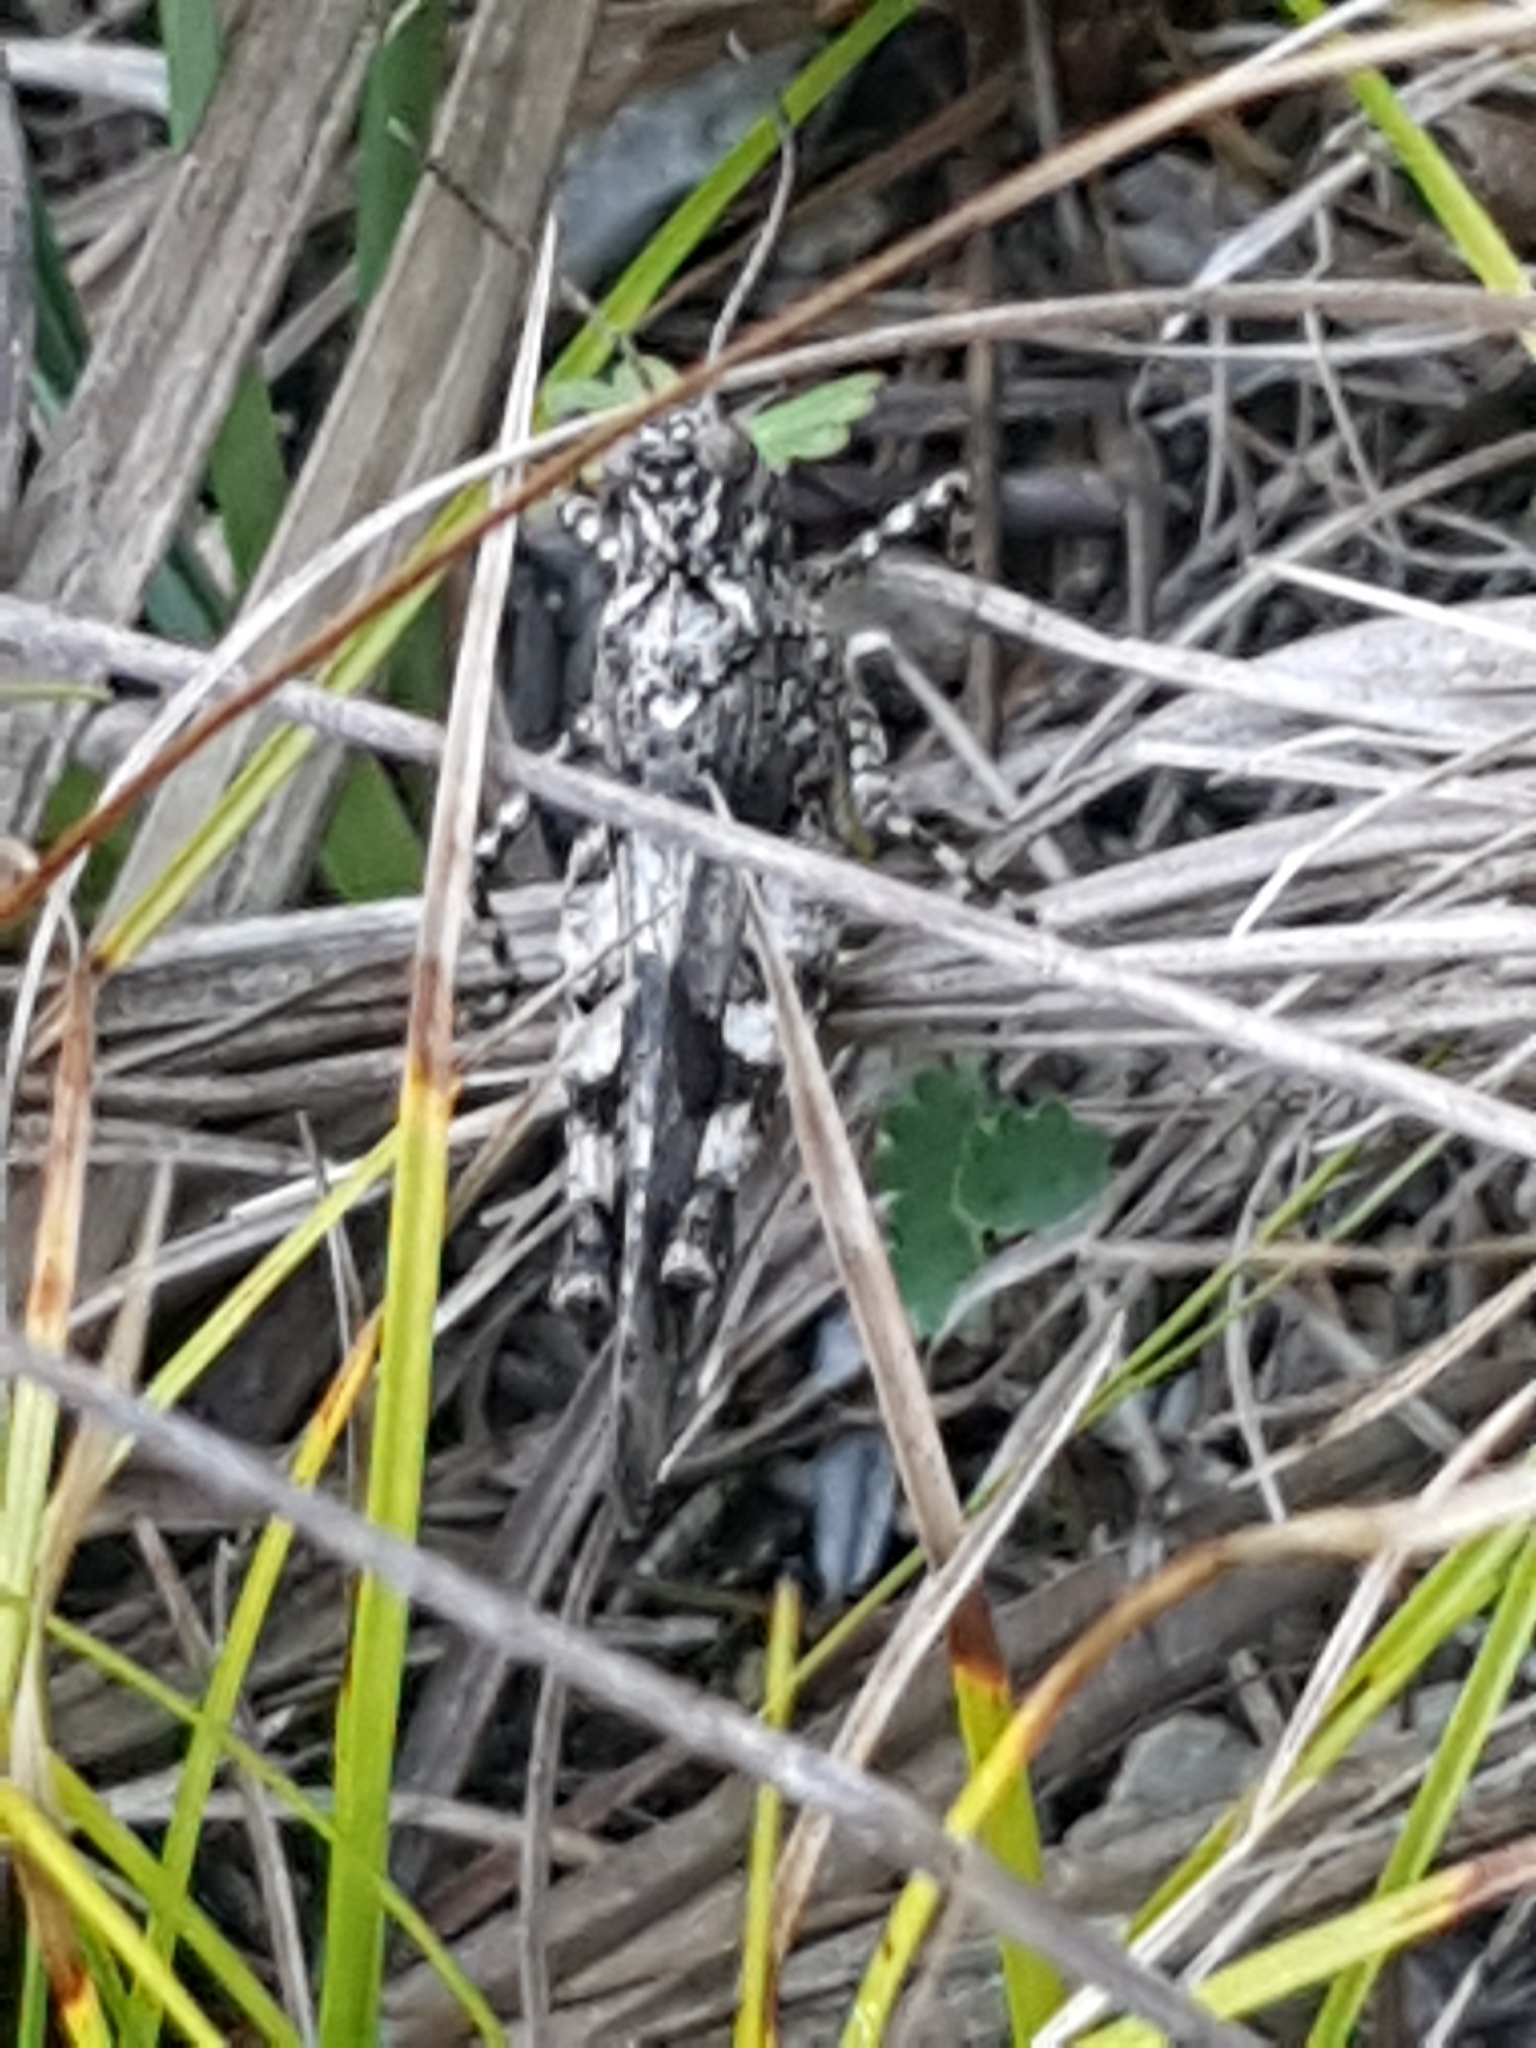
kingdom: Animalia
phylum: Arthropoda
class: Insecta
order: Orthoptera
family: Acrididae
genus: Oedipoda
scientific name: Oedipoda caerulescens
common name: Blue-winged grasshopper
